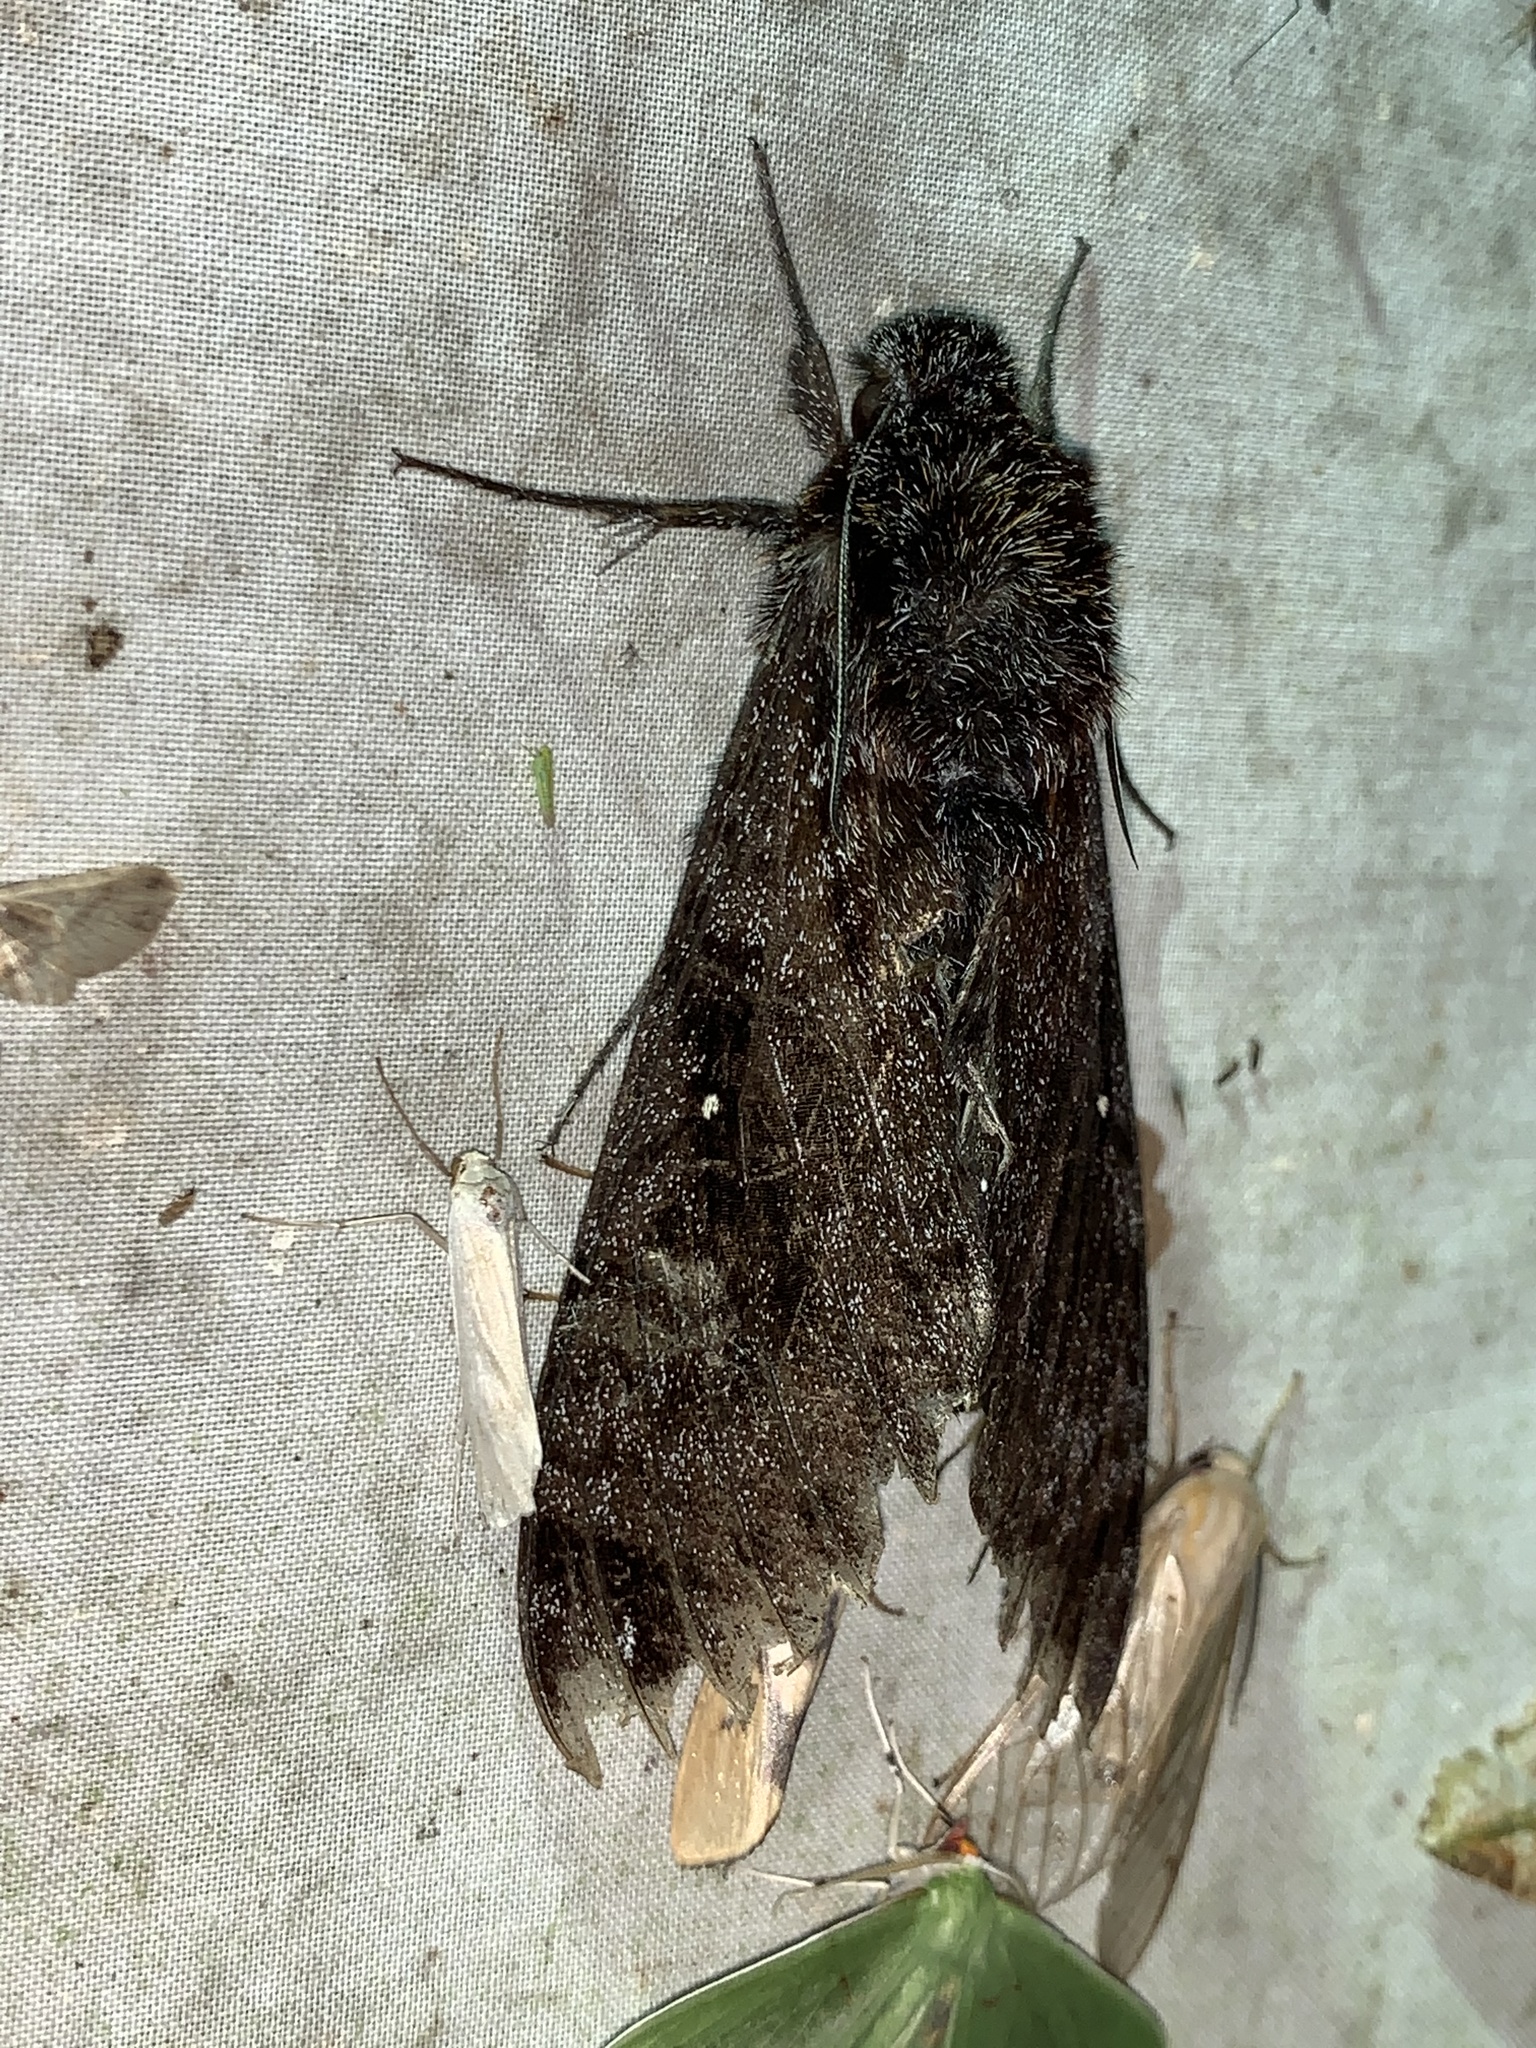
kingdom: Animalia
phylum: Arthropoda
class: Insecta
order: Lepidoptera
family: Sphingidae
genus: Euryglottis
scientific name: Euryglottis albostigmata
